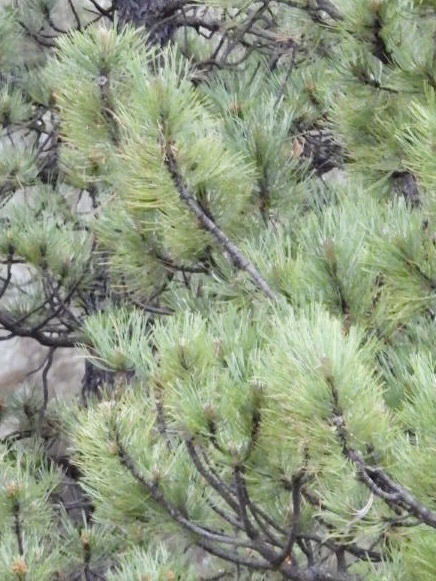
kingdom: Plantae
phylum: Tracheophyta
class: Pinopsida
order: Pinales
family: Pinaceae
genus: Pinus
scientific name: Pinus ponderosa
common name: Western yellow-pine
